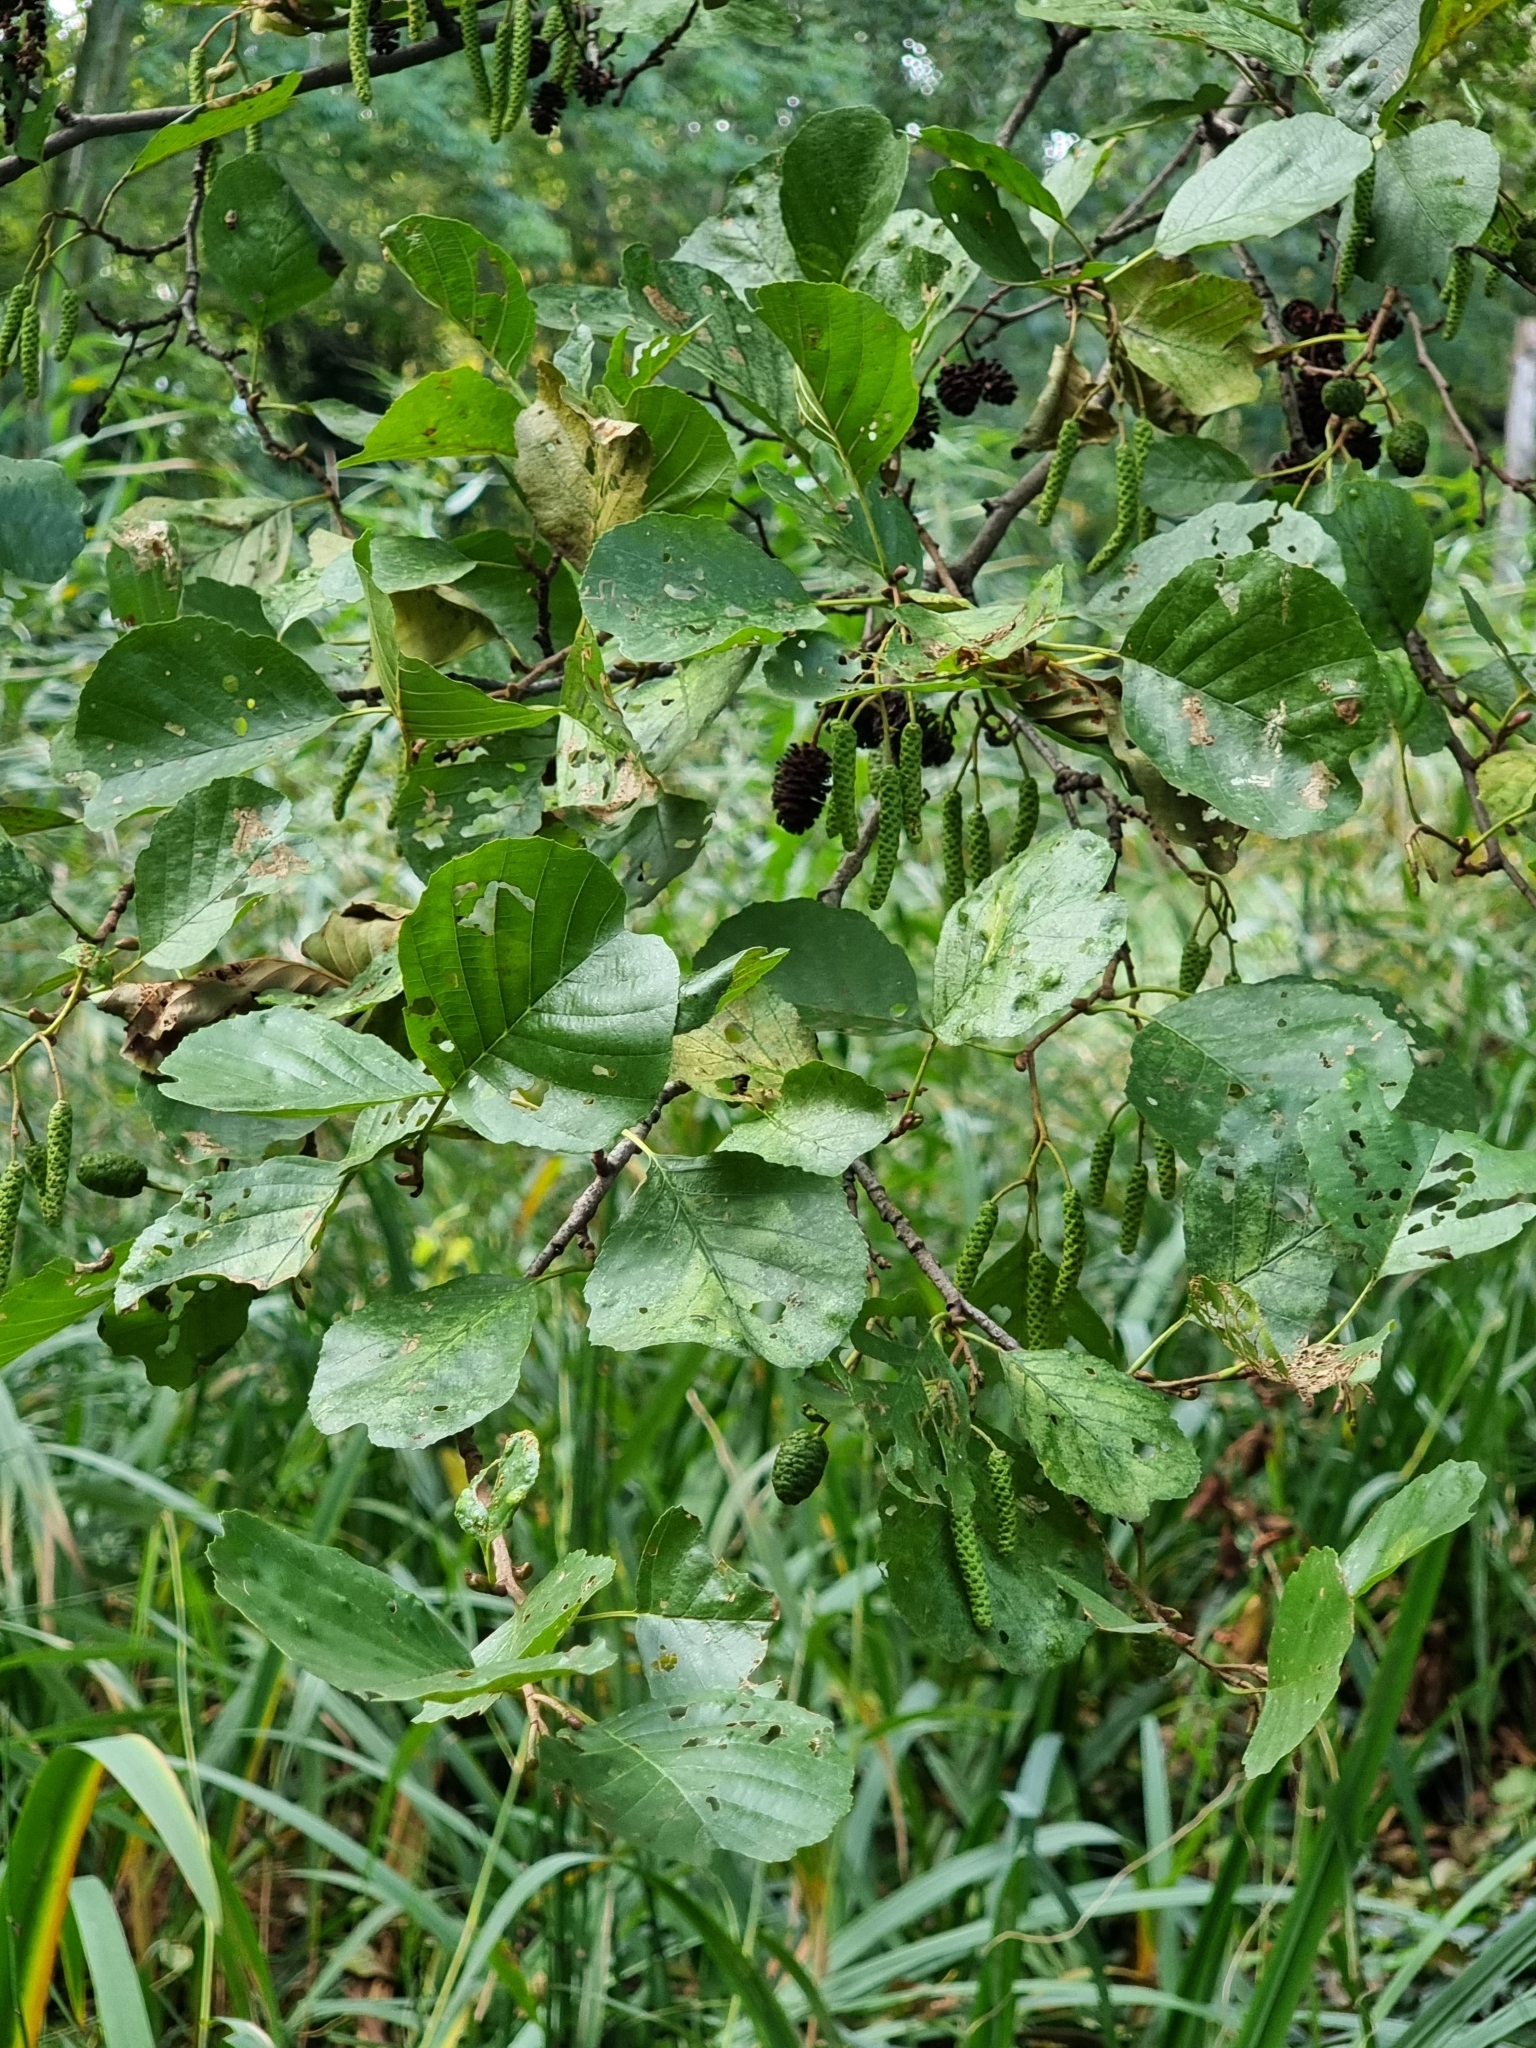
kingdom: Plantae
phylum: Tracheophyta
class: Magnoliopsida
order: Fagales
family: Betulaceae
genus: Alnus
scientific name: Alnus glutinosa
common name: Black alder
